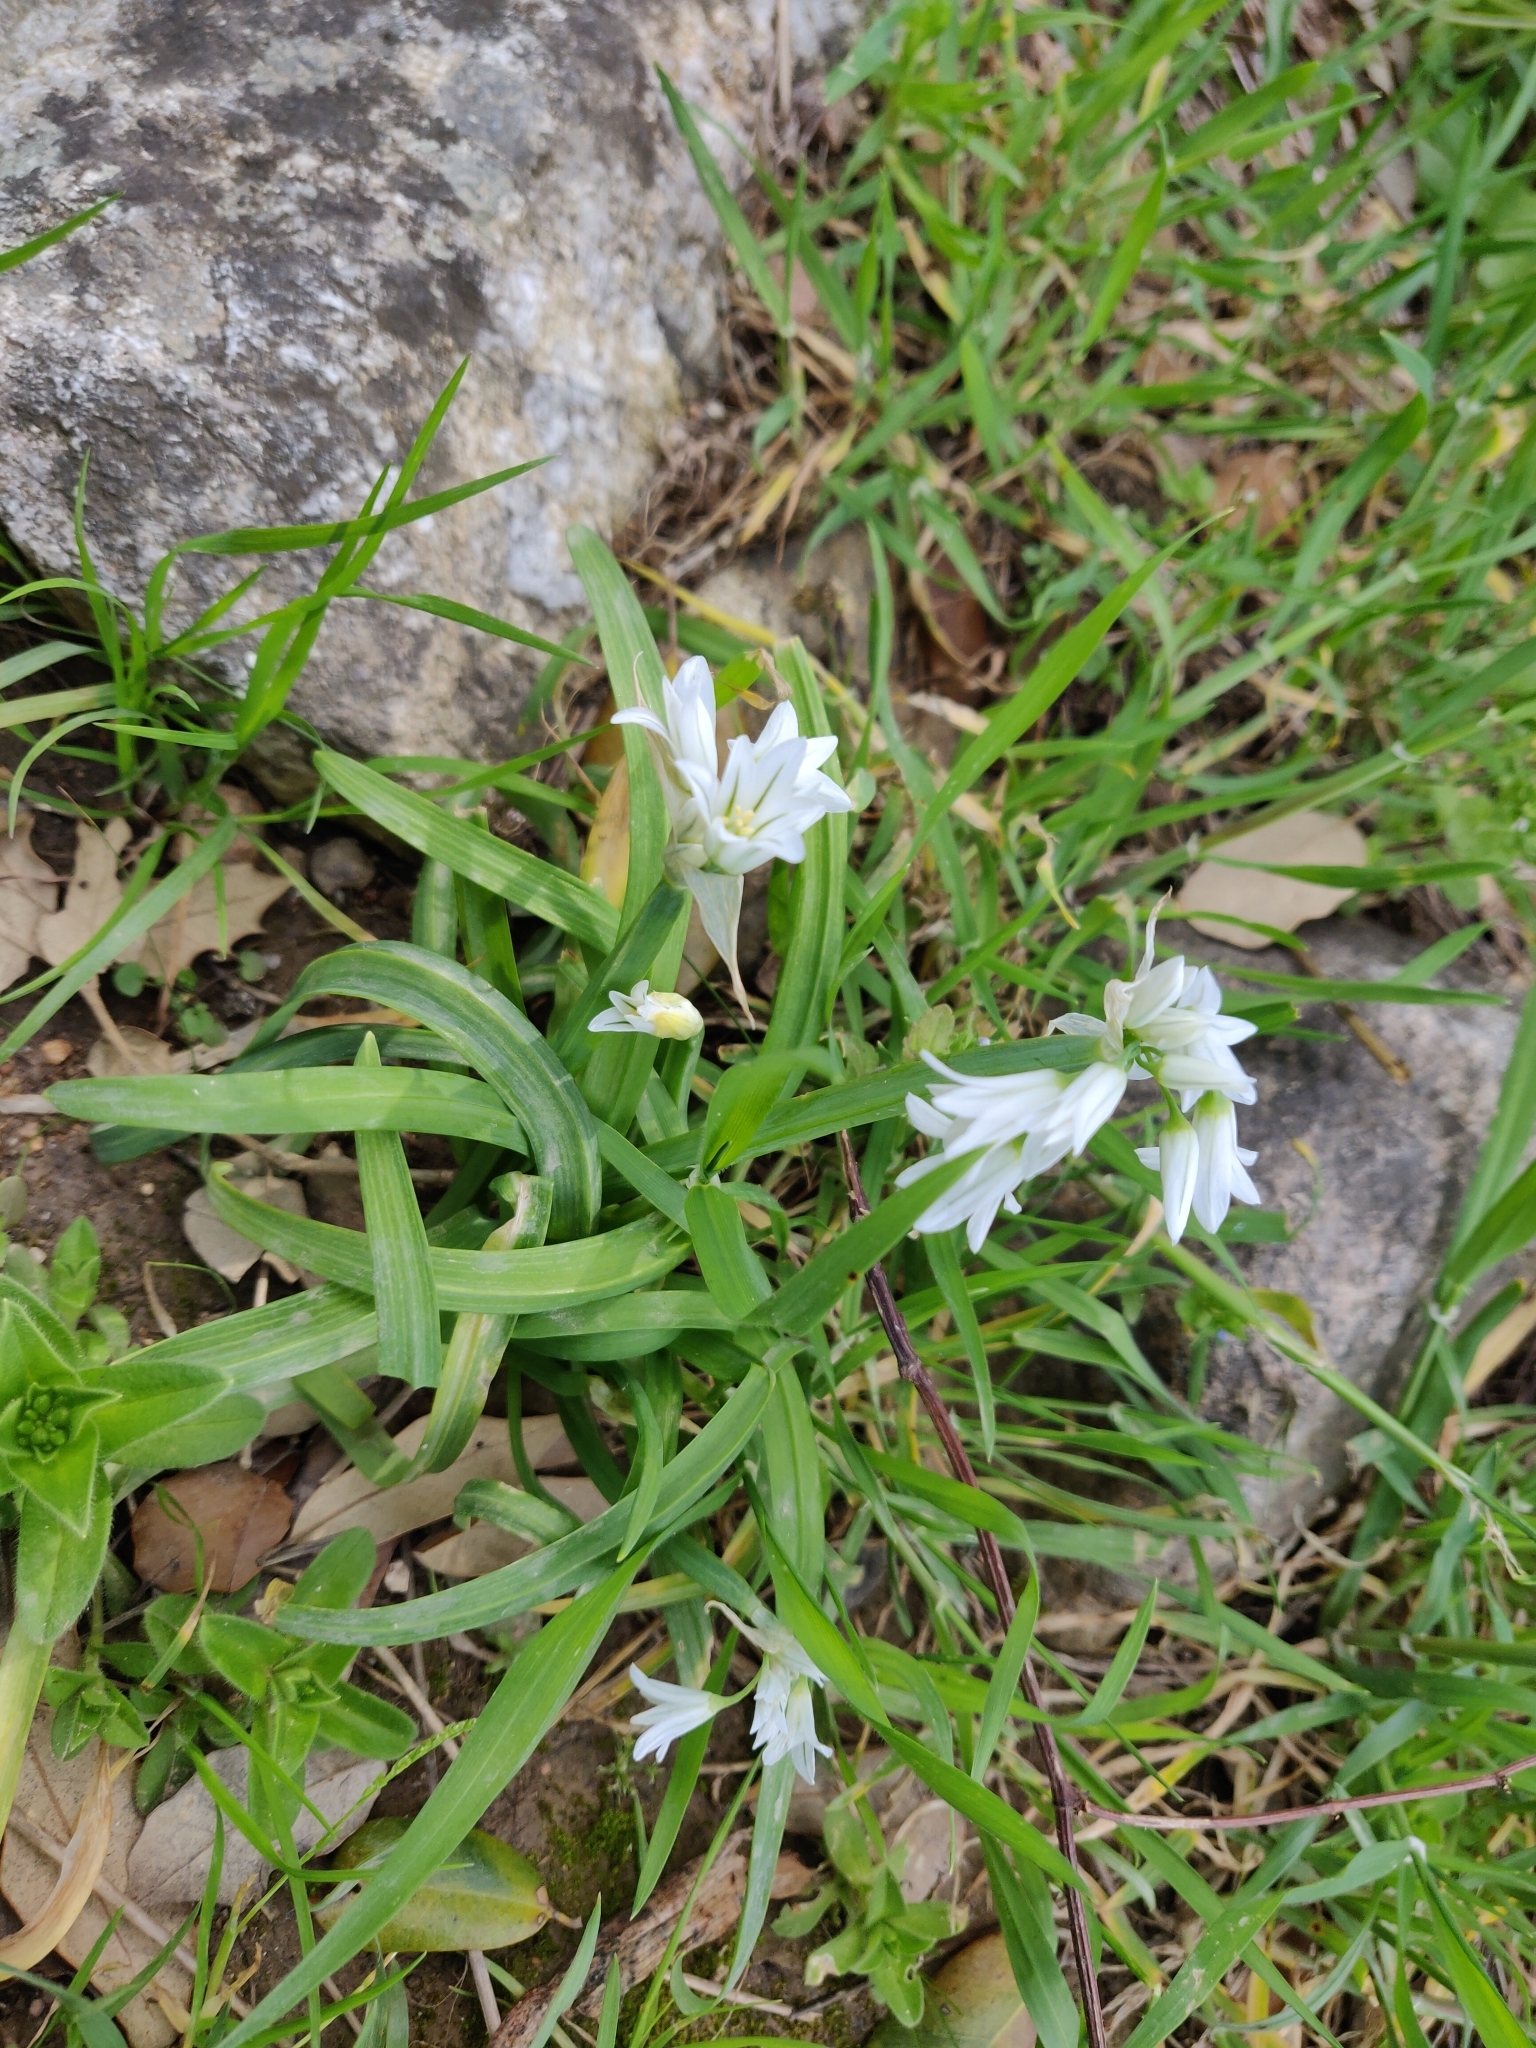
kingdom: Plantae
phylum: Tracheophyta
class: Liliopsida
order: Asparagales
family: Amaryllidaceae
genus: Allium
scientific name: Allium triquetrum
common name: Three-cornered garlic
